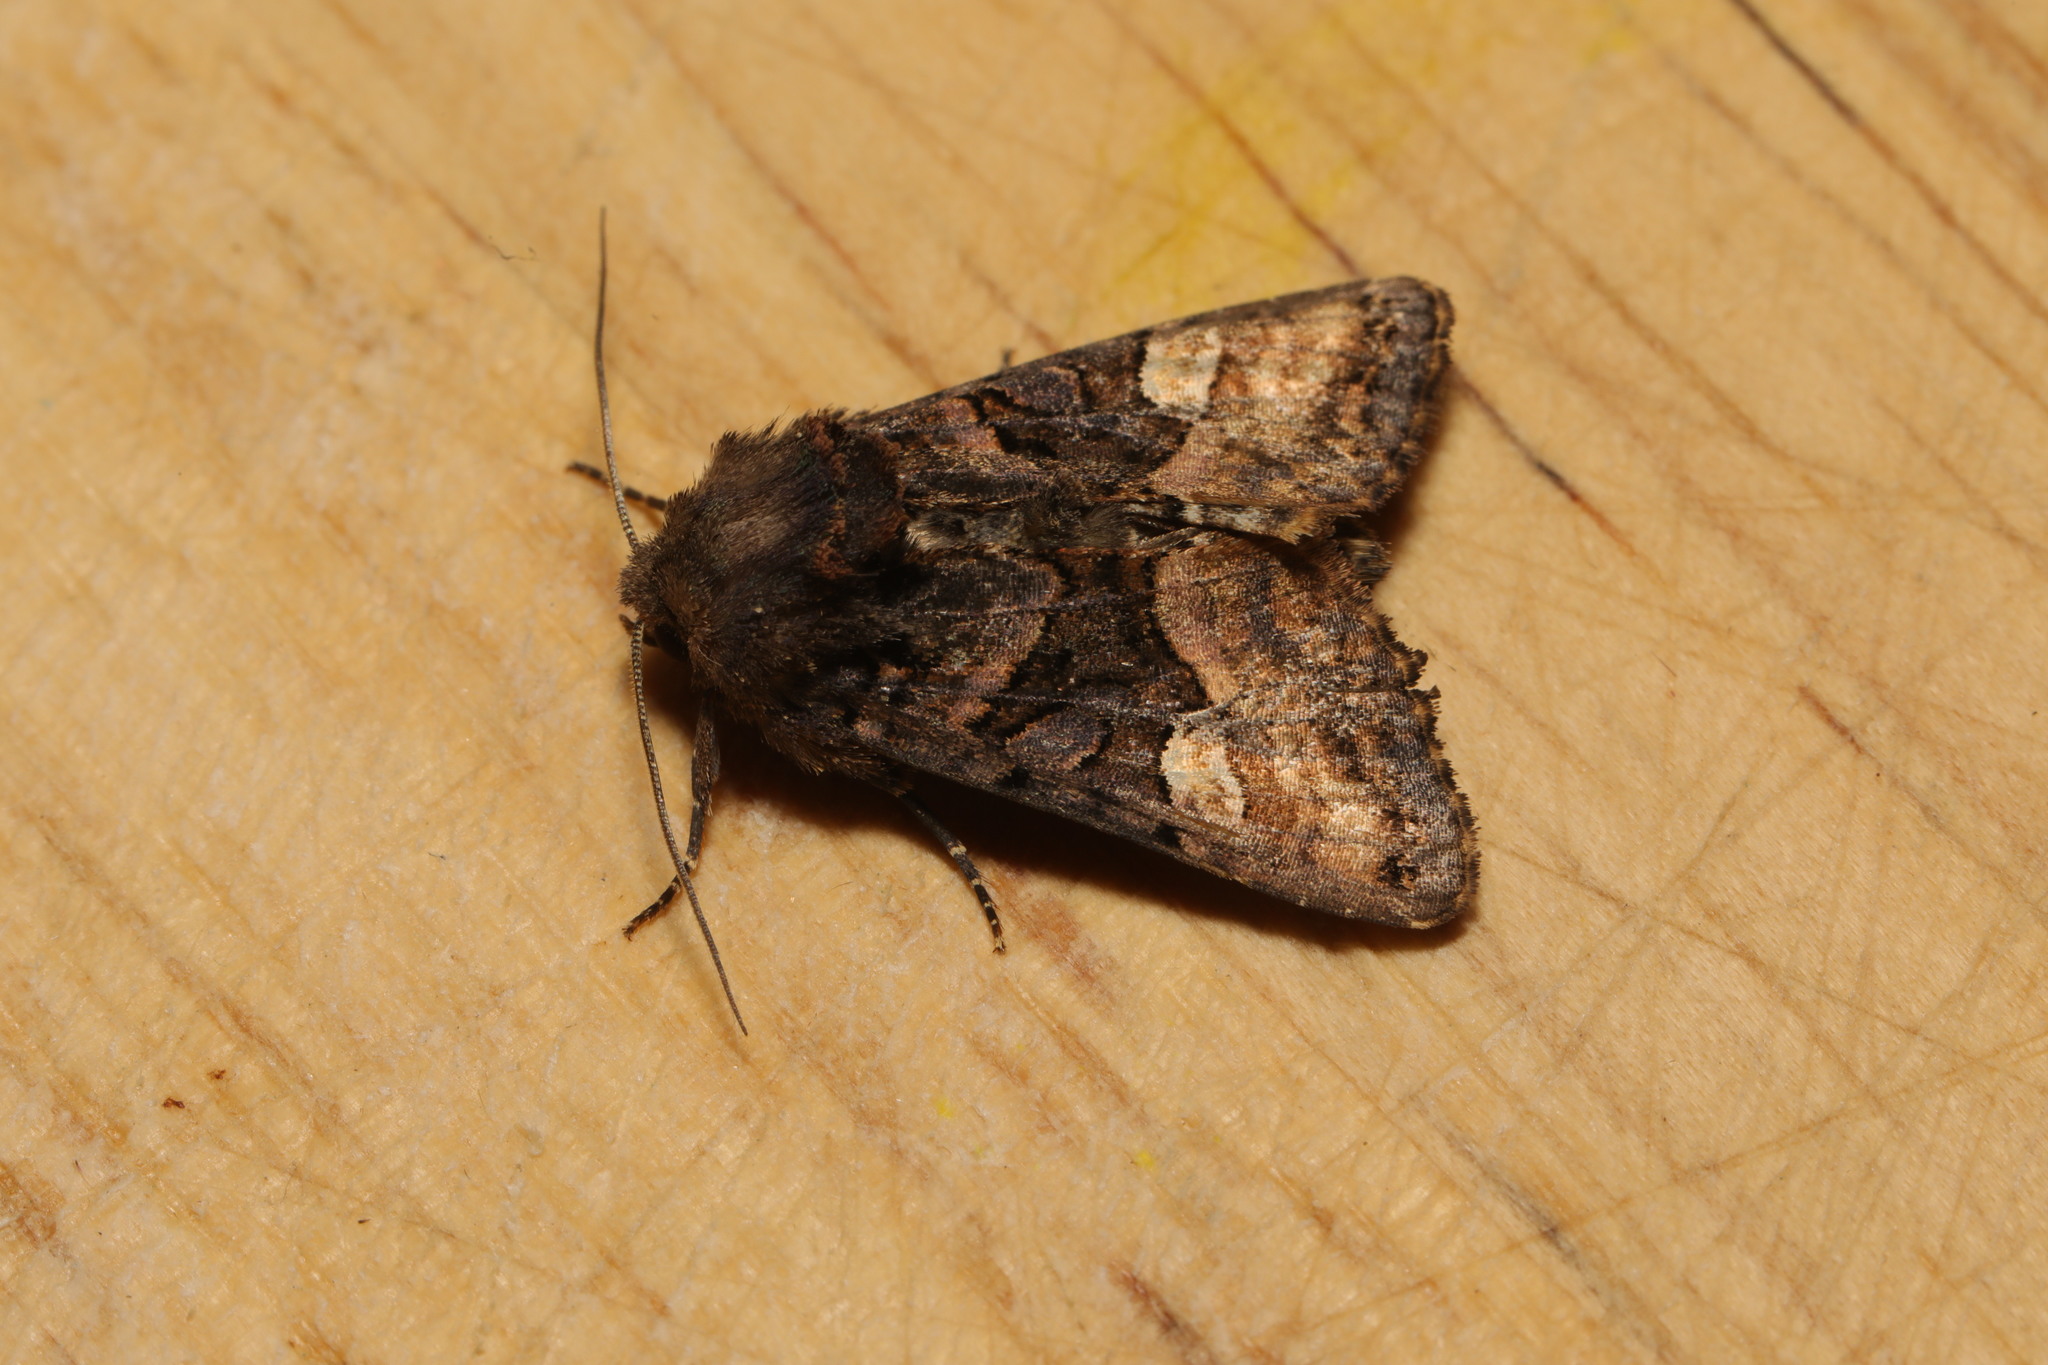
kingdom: Animalia
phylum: Arthropoda
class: Insecta
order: Lepidoptera
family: Noctuidae
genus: Euplexia
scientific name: Euplexia lucipara
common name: Small angle shades
